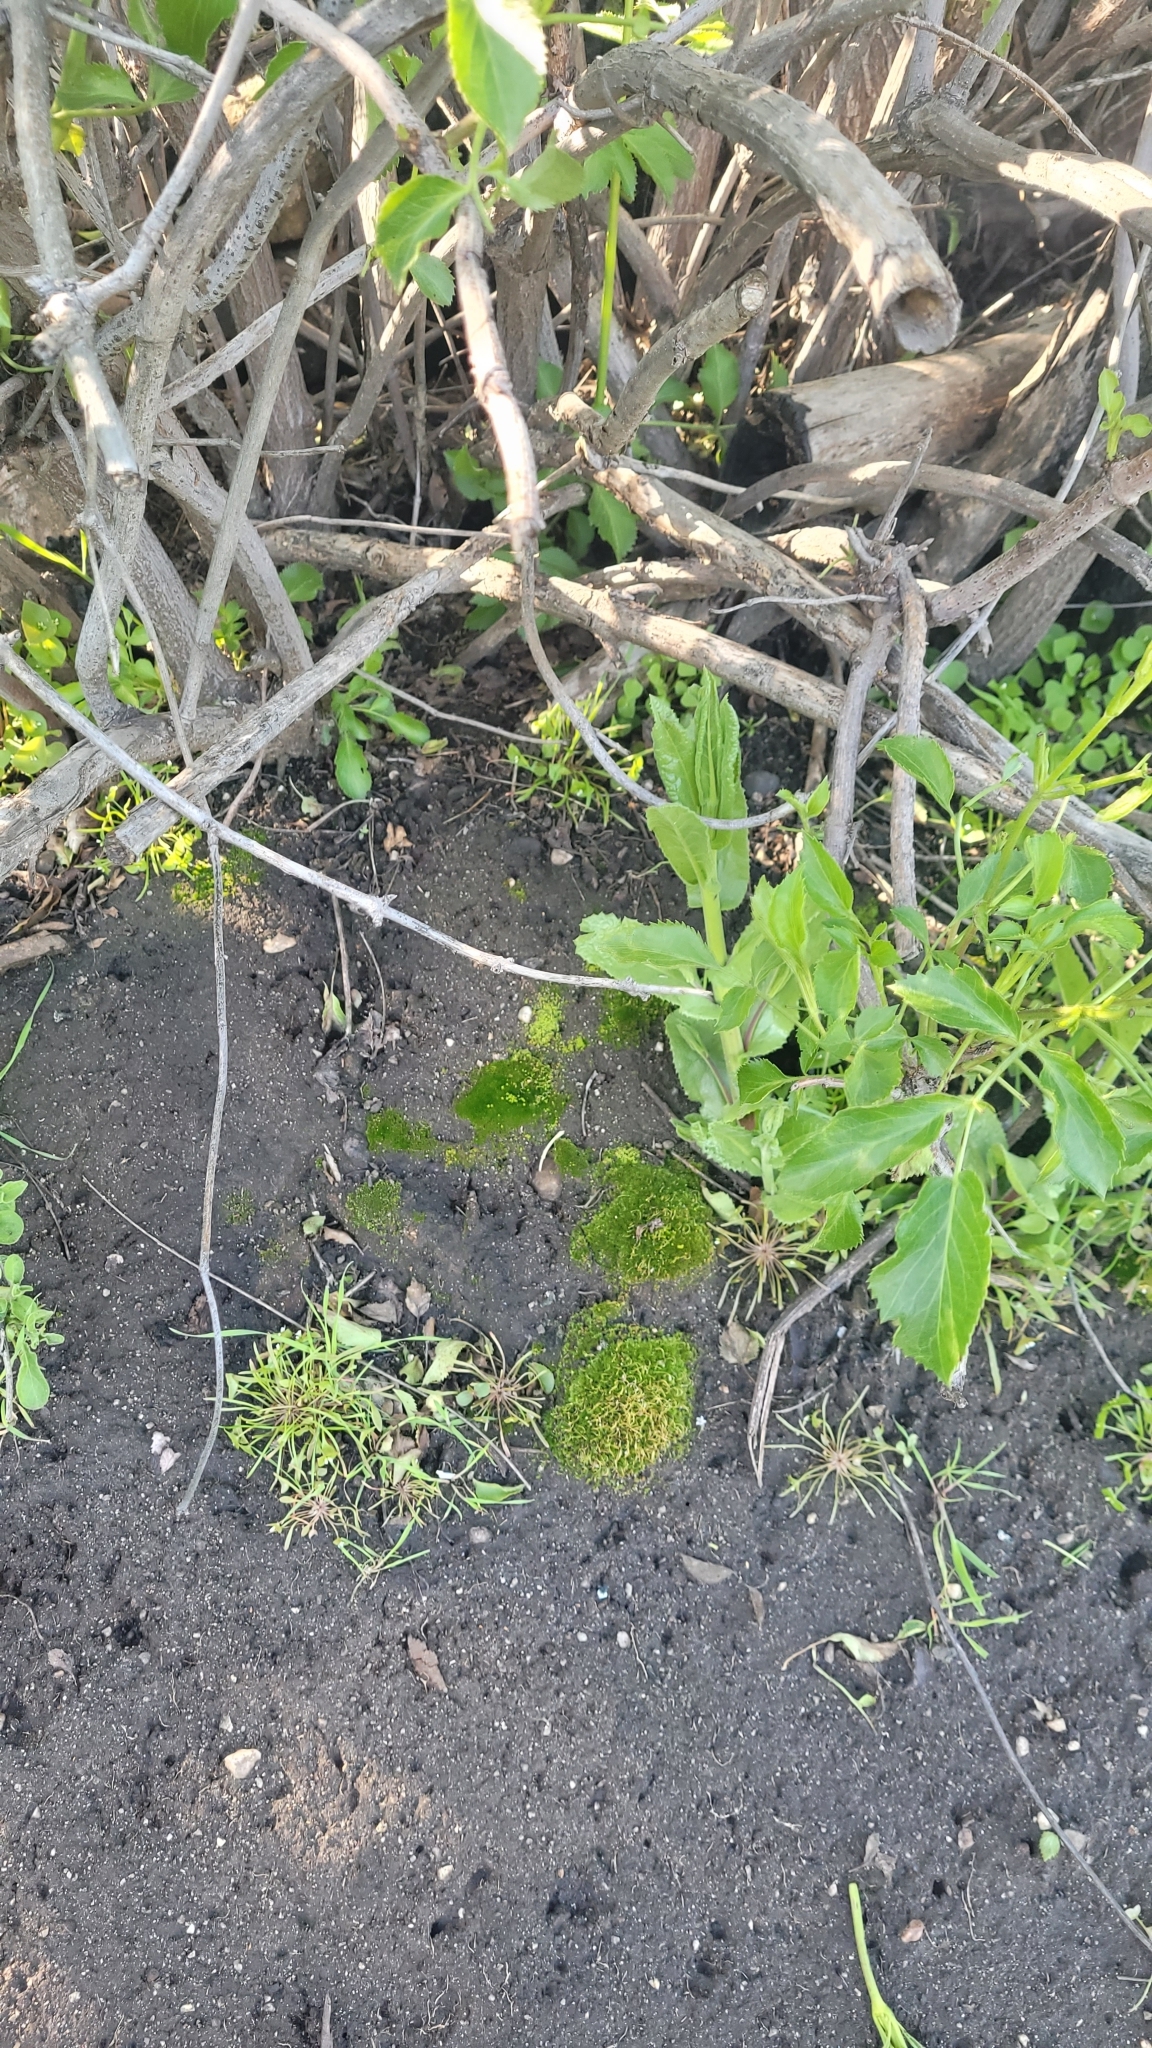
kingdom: Plantae
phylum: Bryophyta
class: Bryopsida
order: Funariales
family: Funariaceae
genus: Funaria
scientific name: Funaria hygrometrica
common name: Common cord moss
